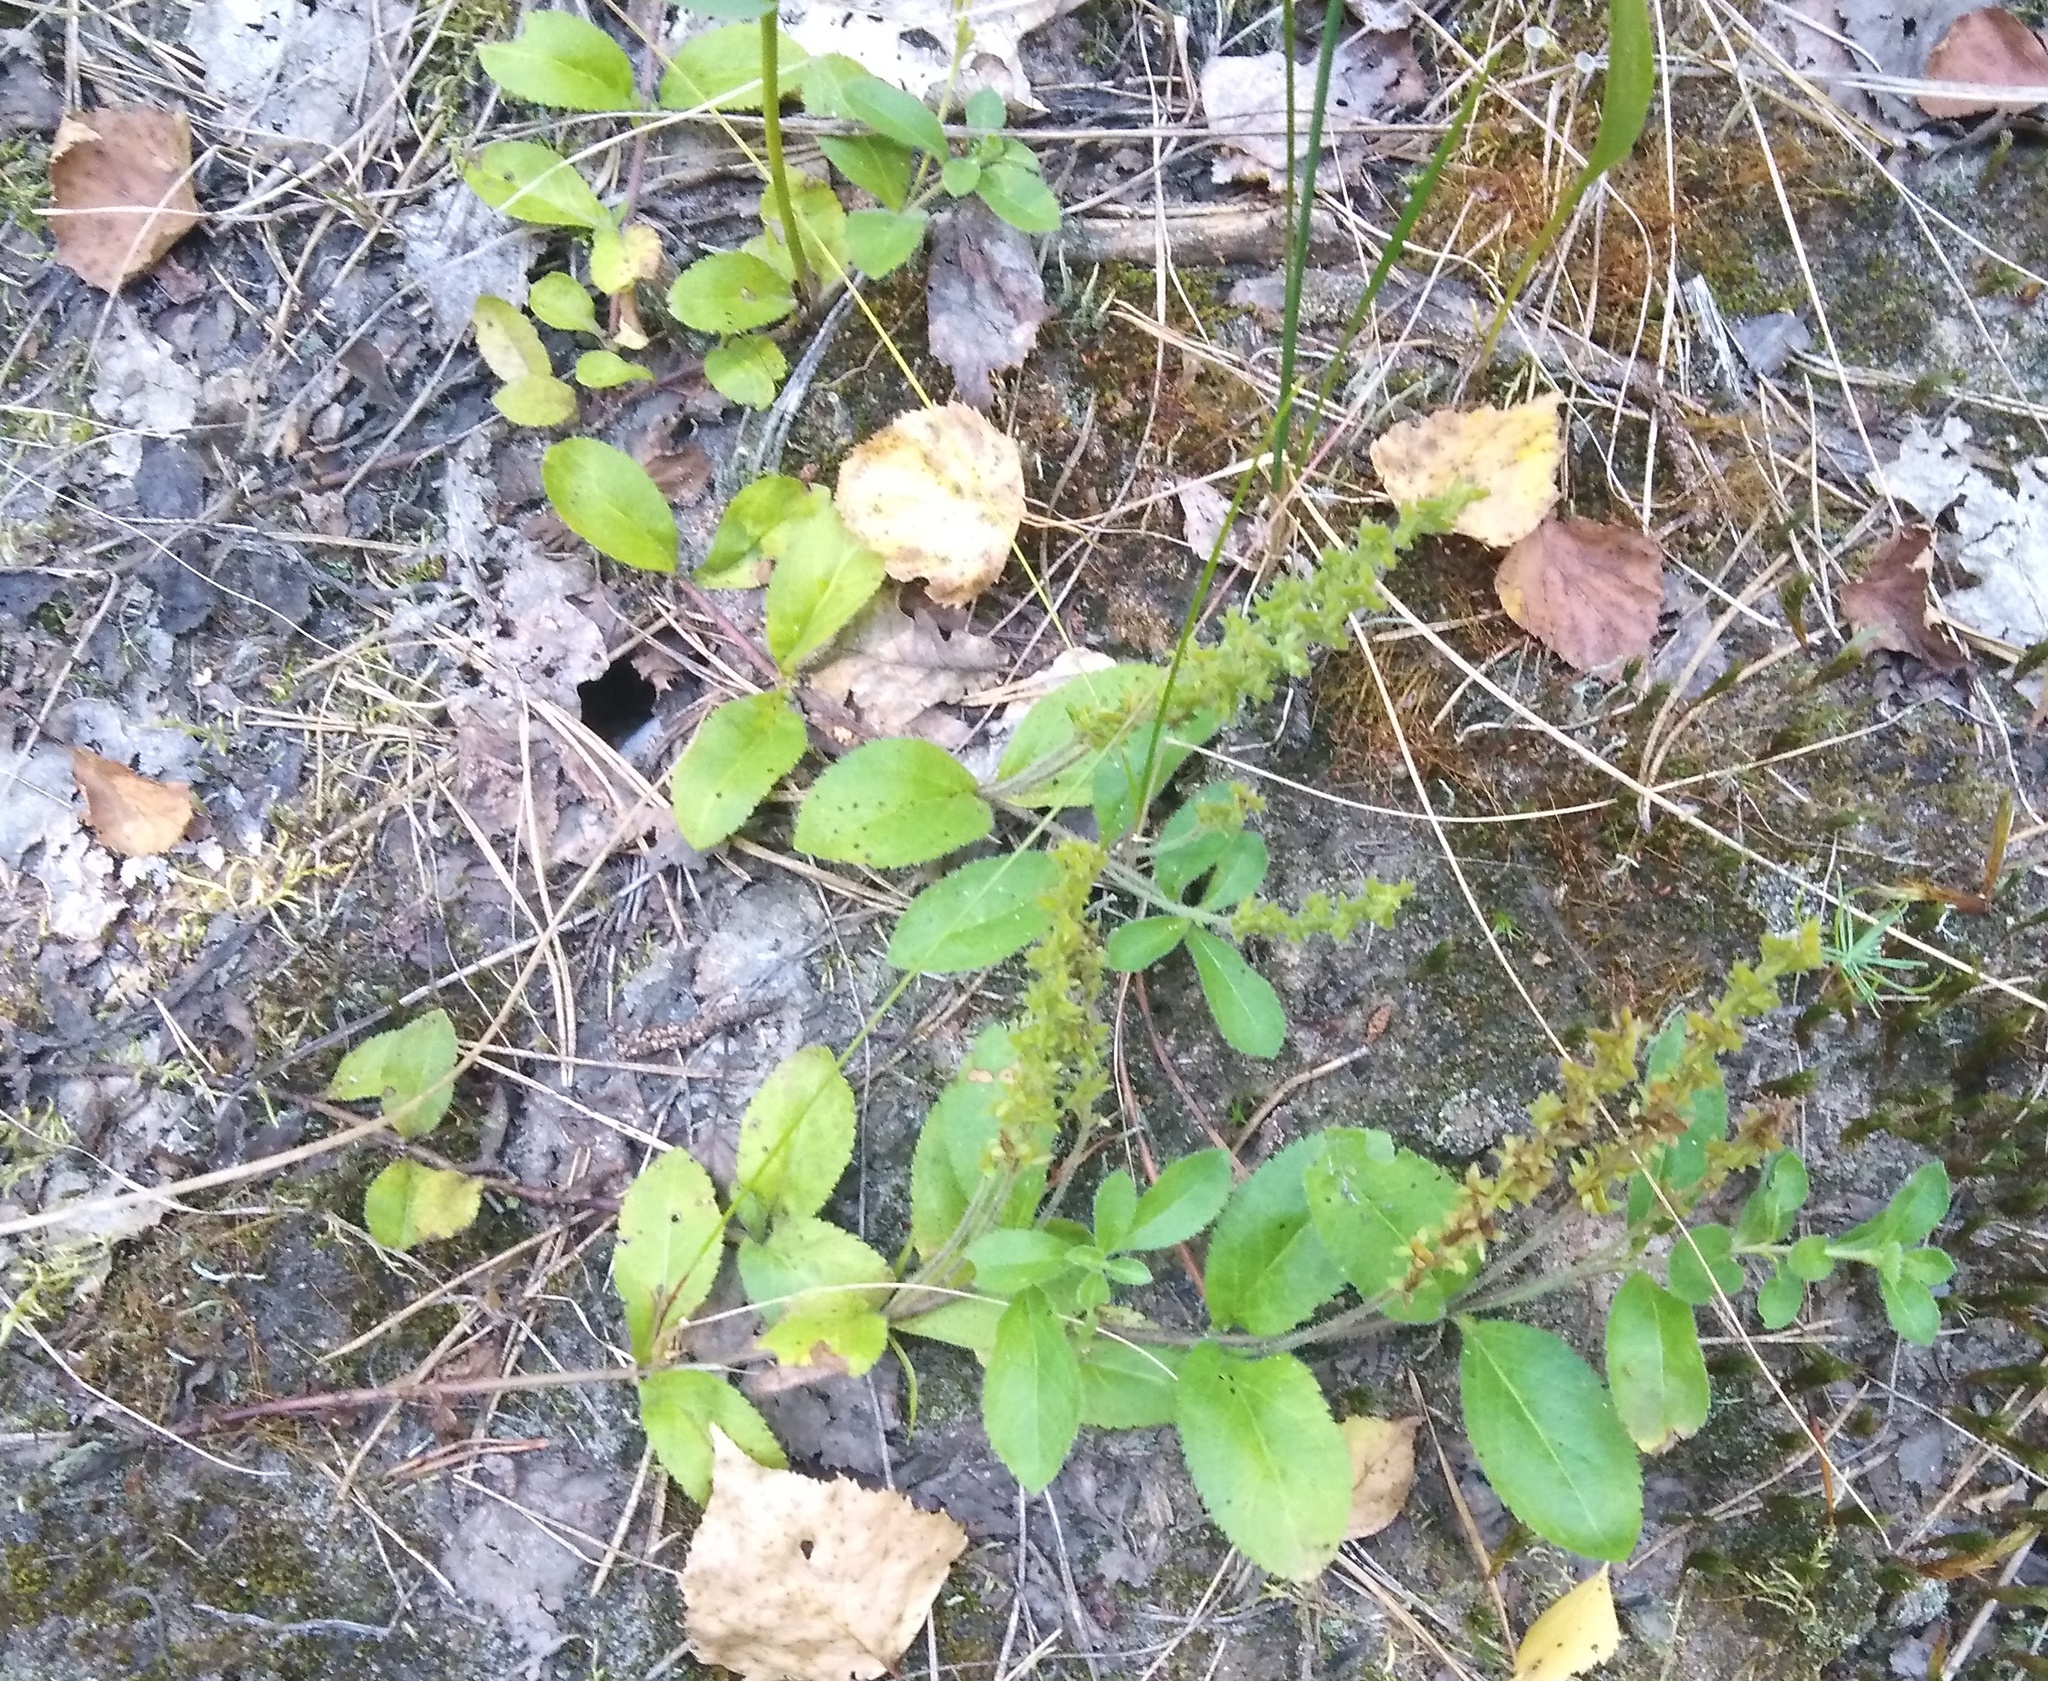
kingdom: Plantae
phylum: Tracheophyta
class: Magnoliopsida
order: Lamiales
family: Plantaginaceae
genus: Veronica
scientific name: Veronica officinalis
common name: Common speedwell
